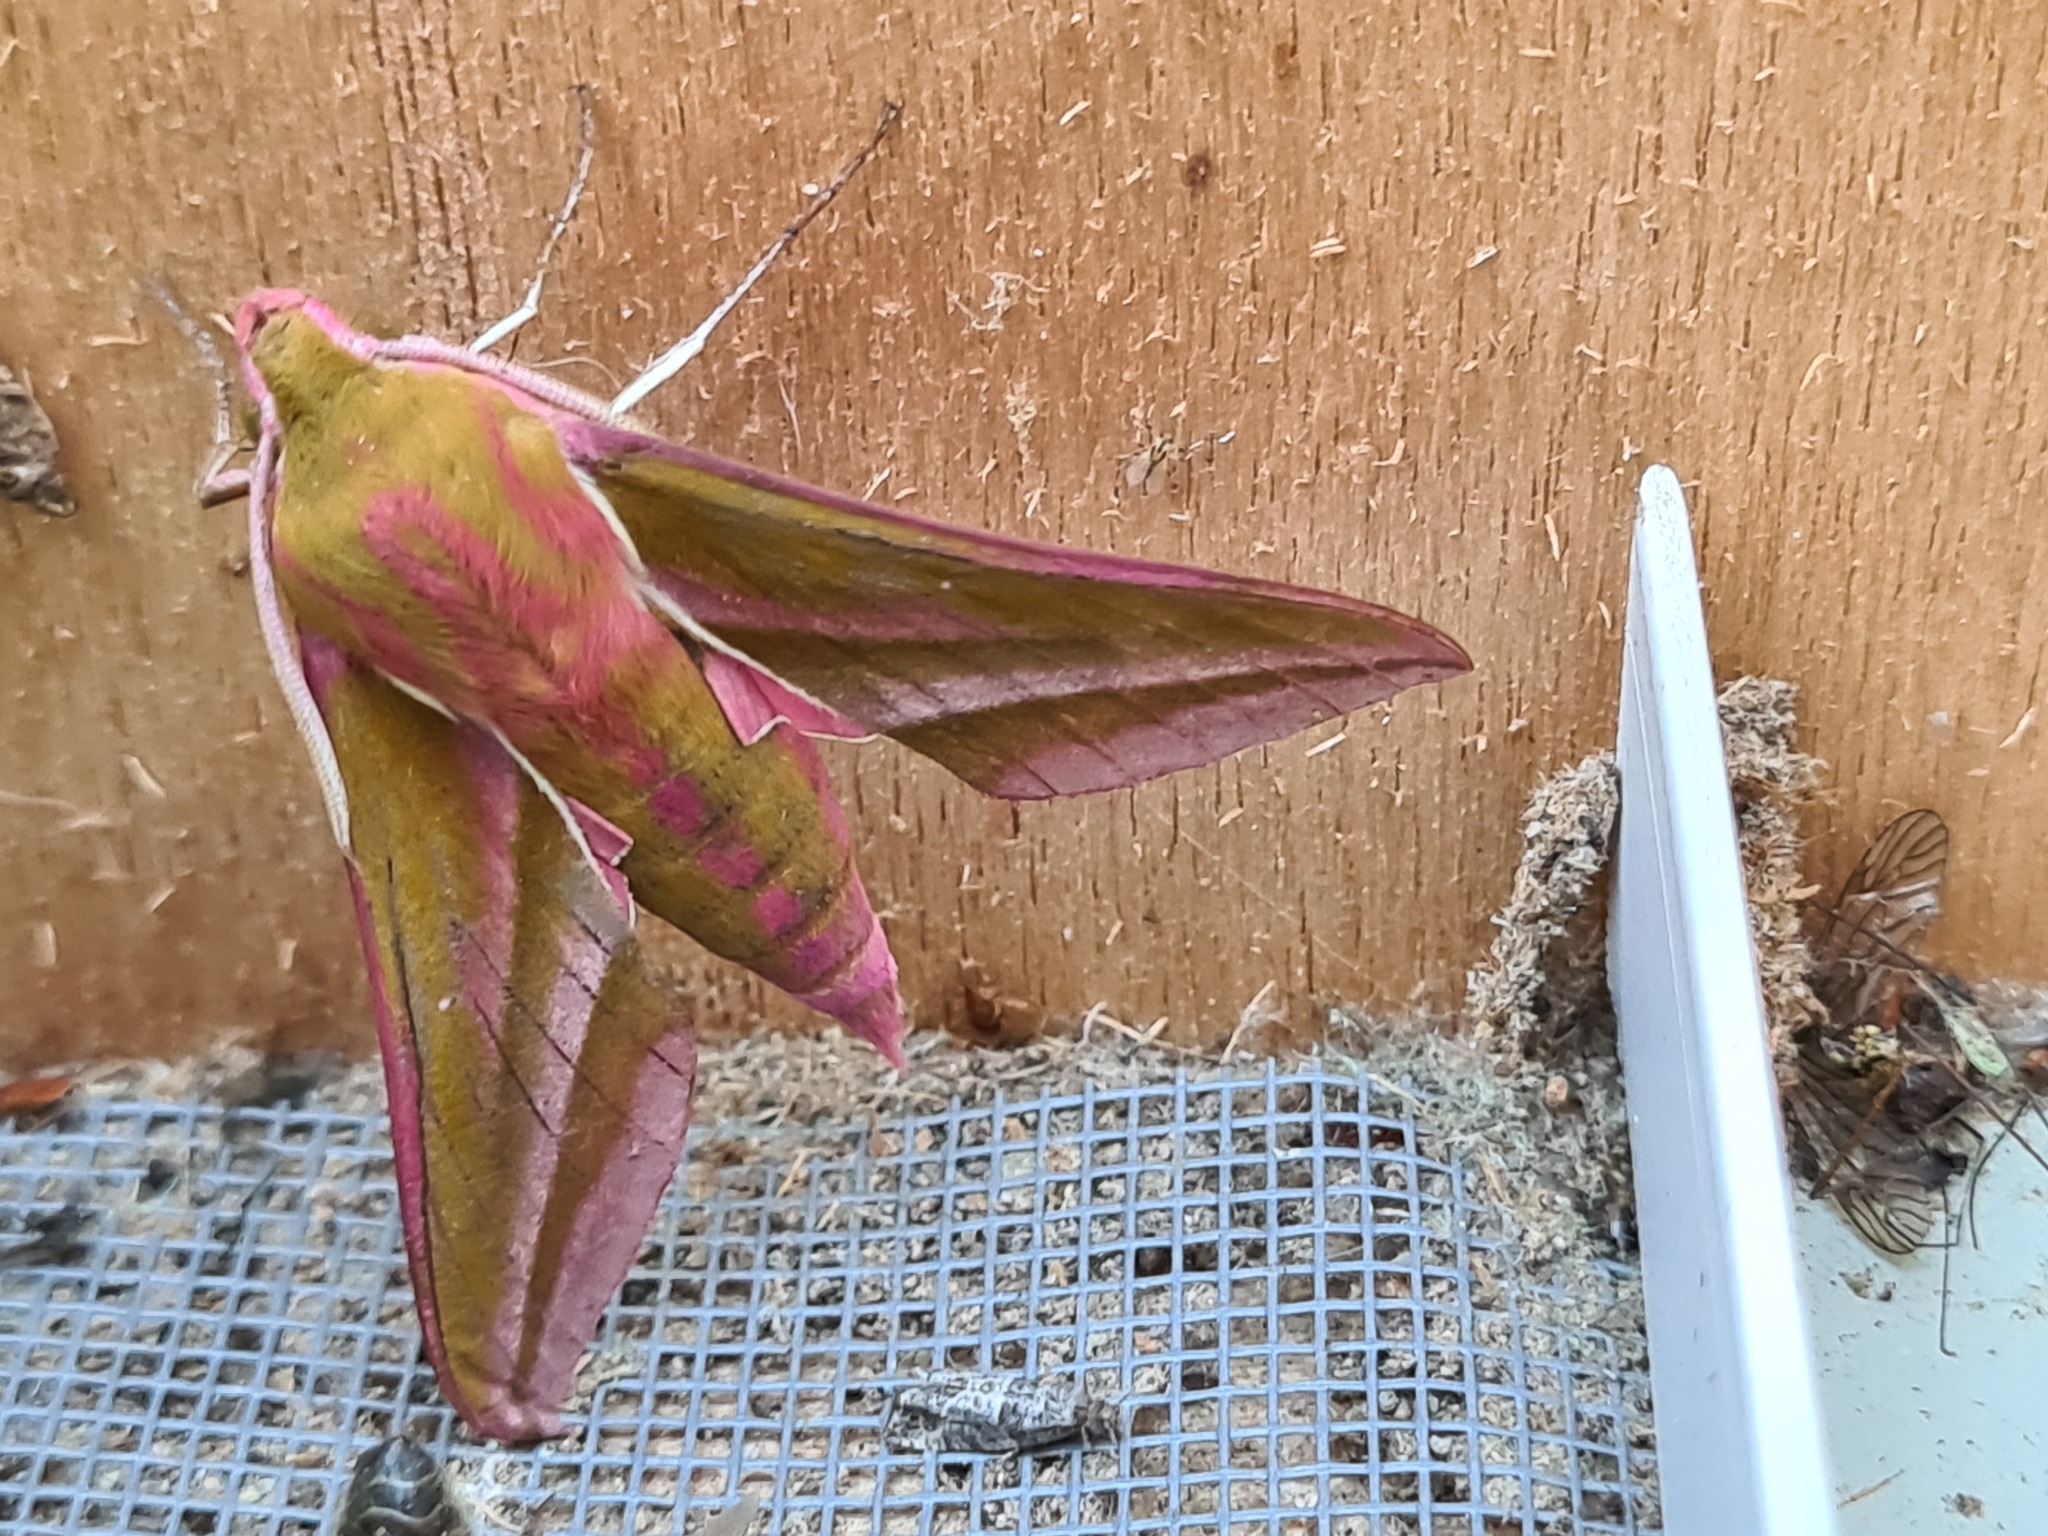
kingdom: Animalia
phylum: Arthropoda
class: Insecta
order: Lepidoptera
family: Sphingidae
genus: Deilephila
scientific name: Deilephila elpenor
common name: Elephant hawk-moth
